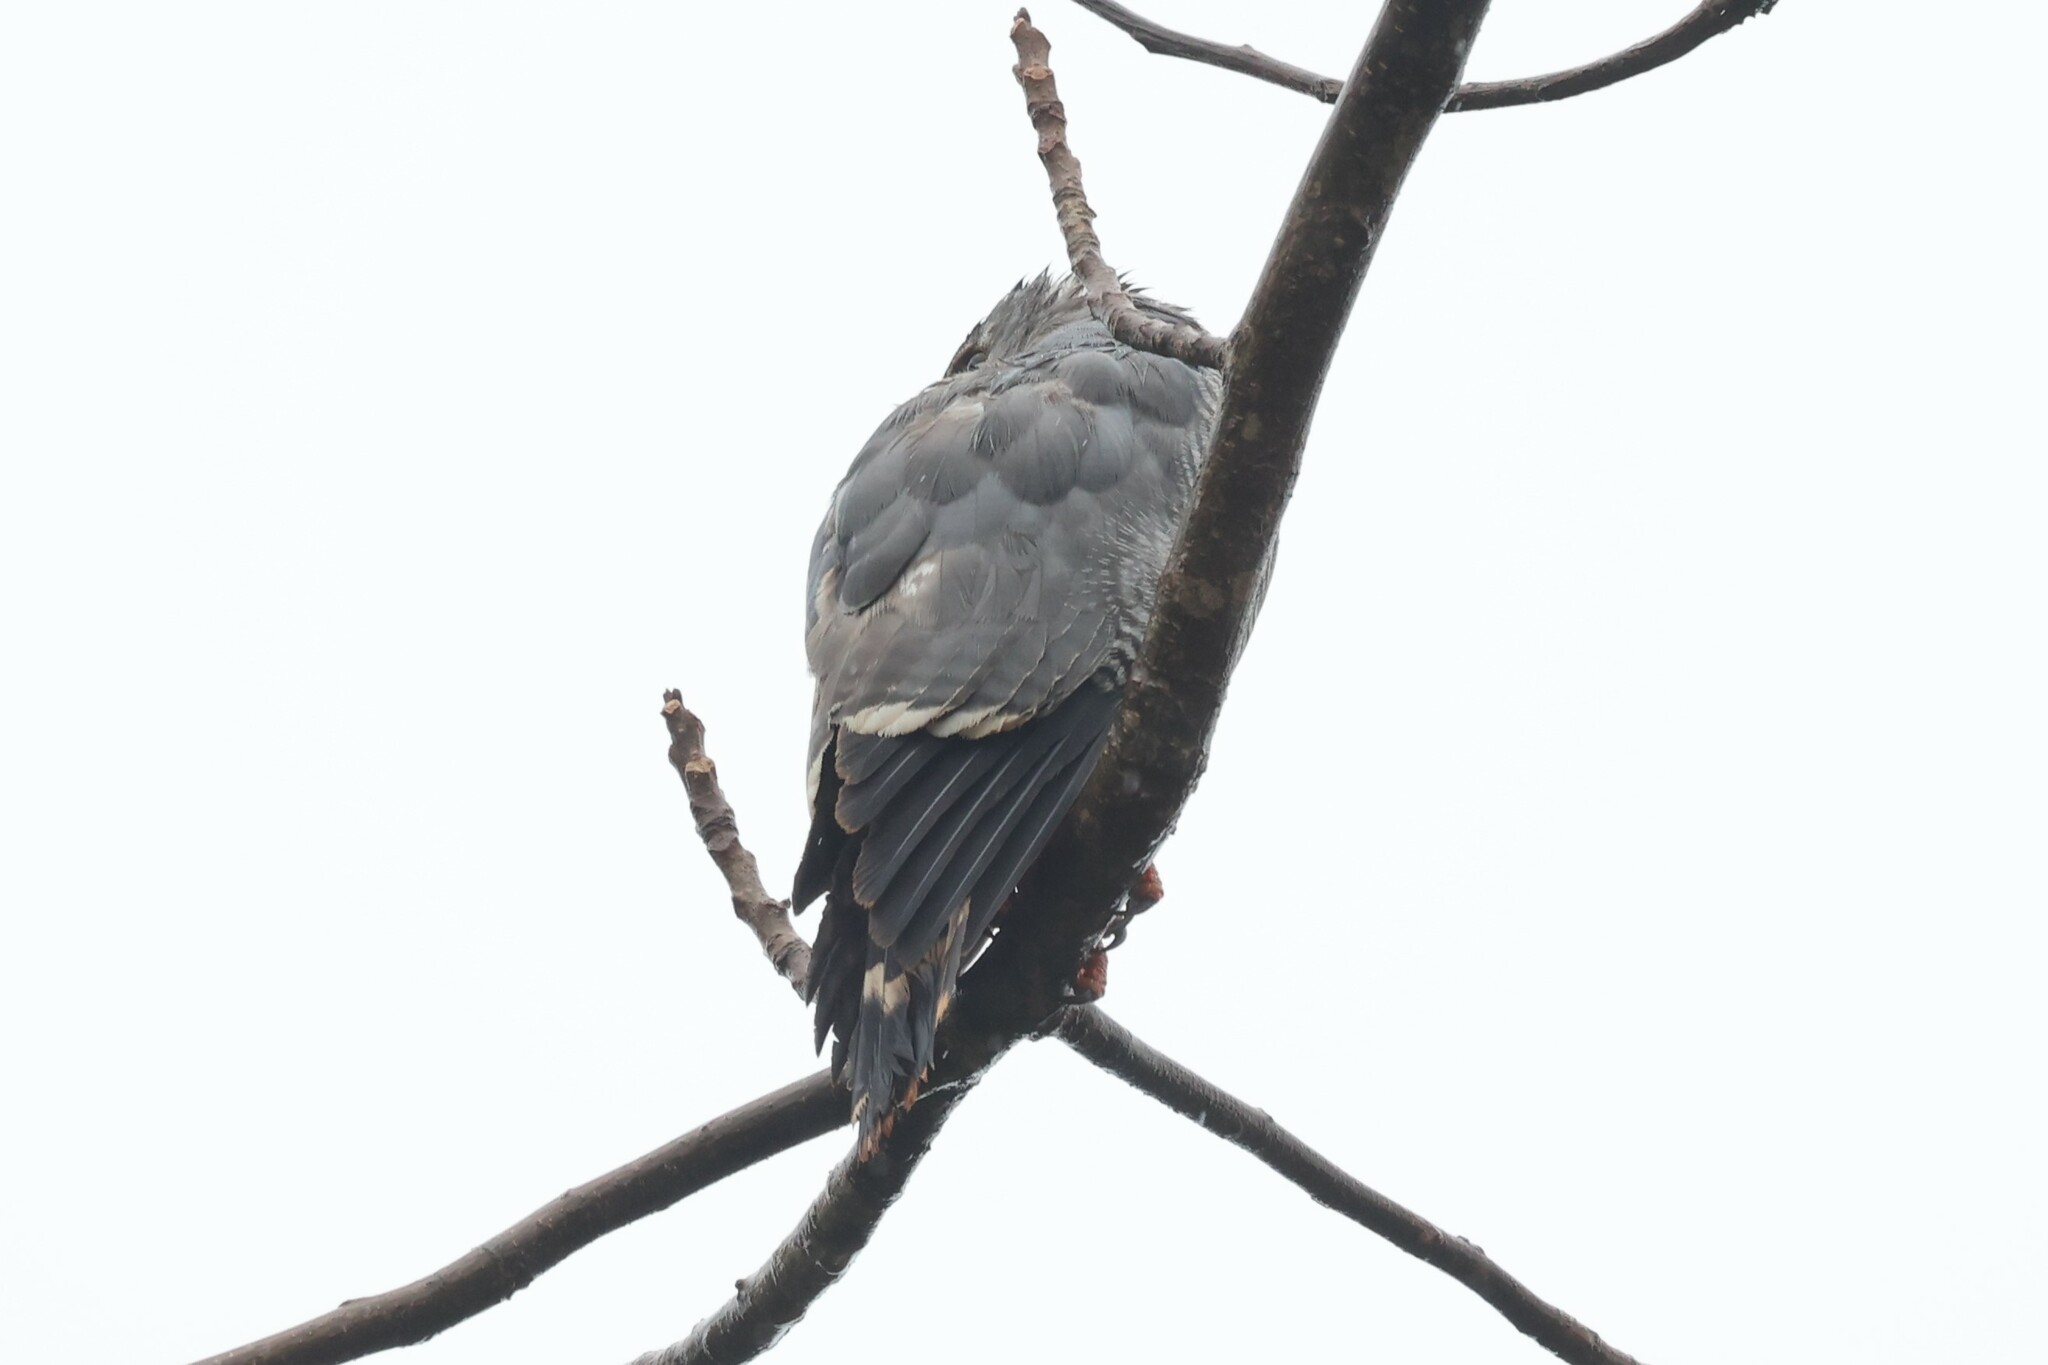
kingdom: Animalia
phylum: Chordata
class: Aves
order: Accipitriformes
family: Accipitridae
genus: Kaupifalco
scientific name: Kaupifalco monogrammicus
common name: Lizard buzzard
